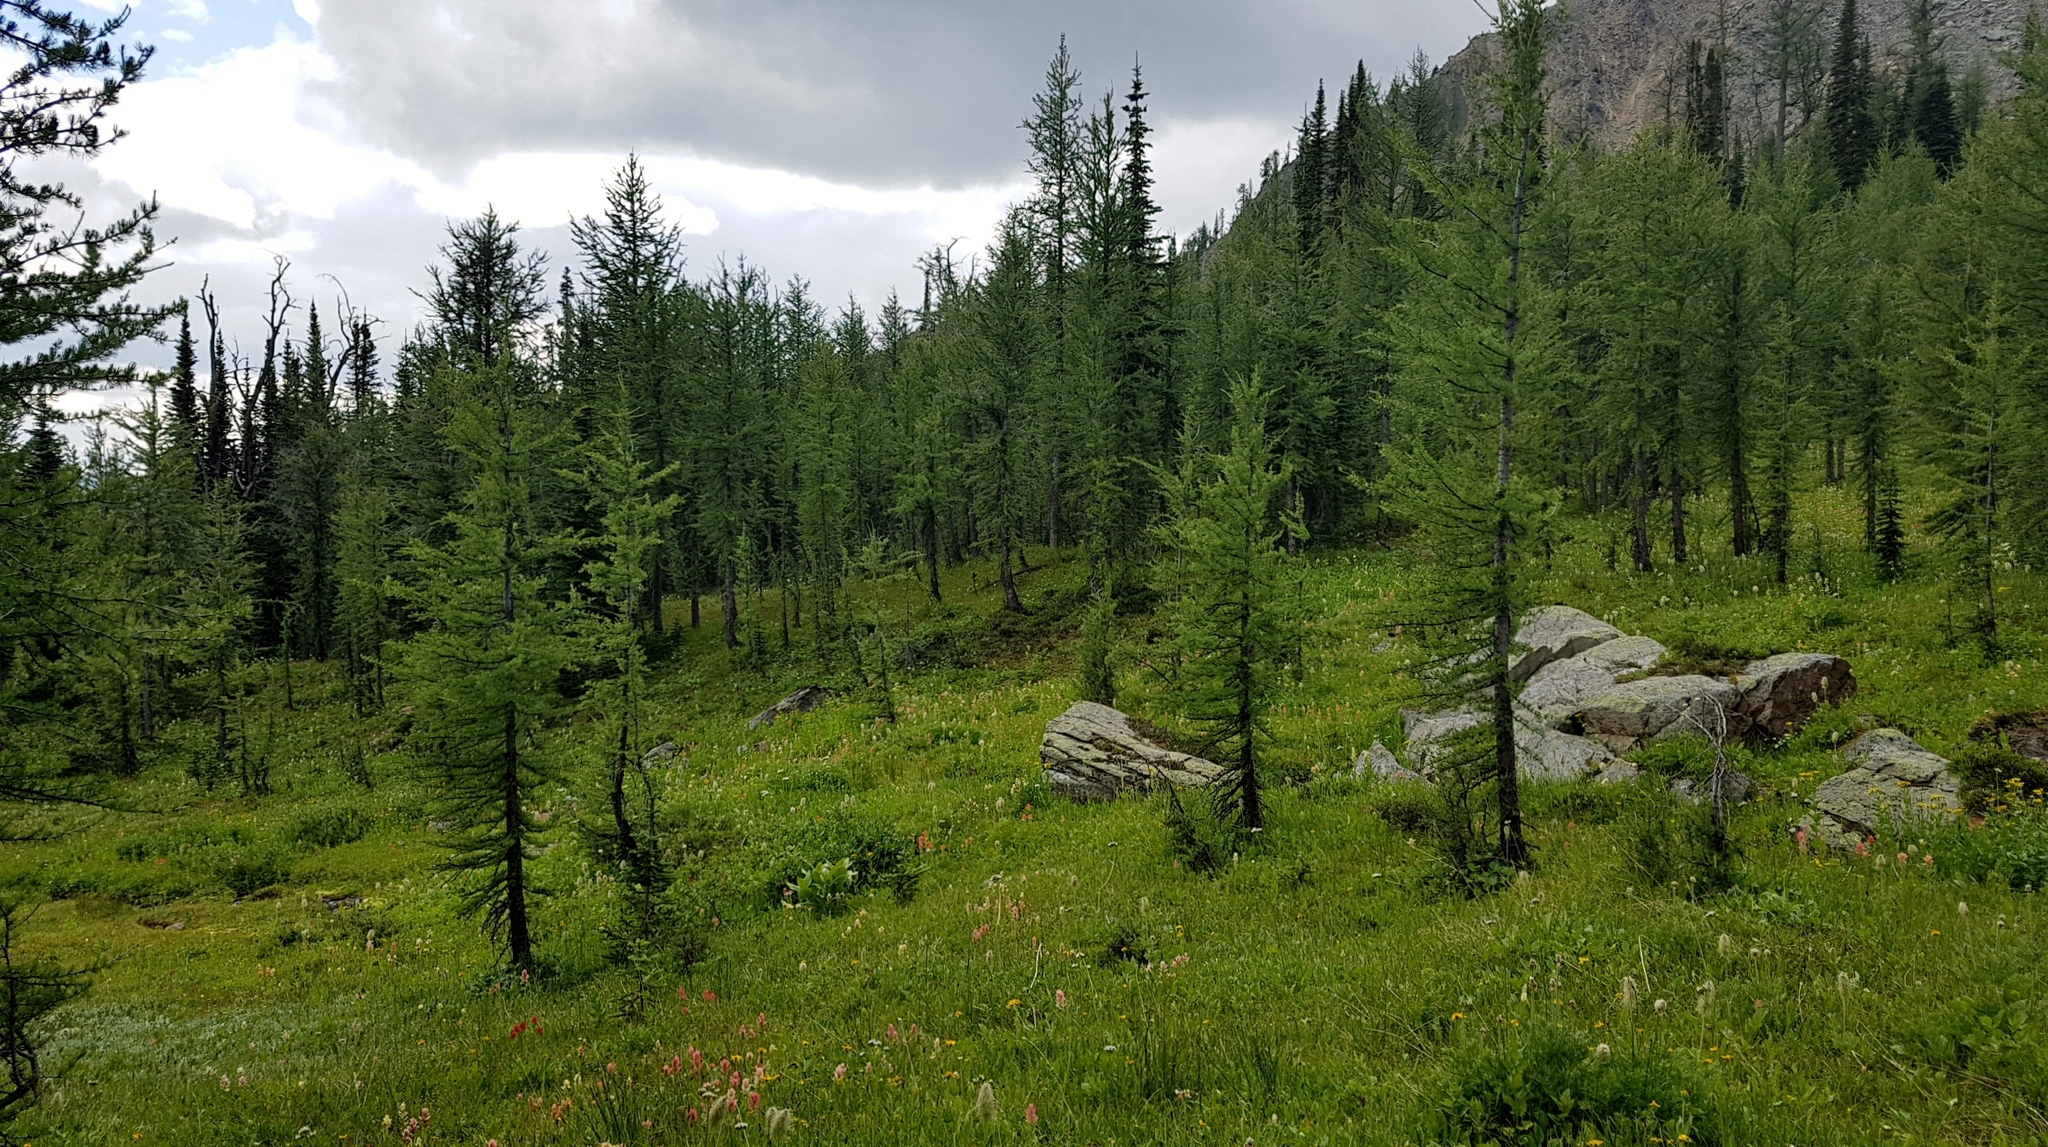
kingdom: Plantae
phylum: Tracheophyta
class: Pinopsida
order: Pinales
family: Pinaceae
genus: Larix
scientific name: Larix lyallii
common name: Alpine larch
